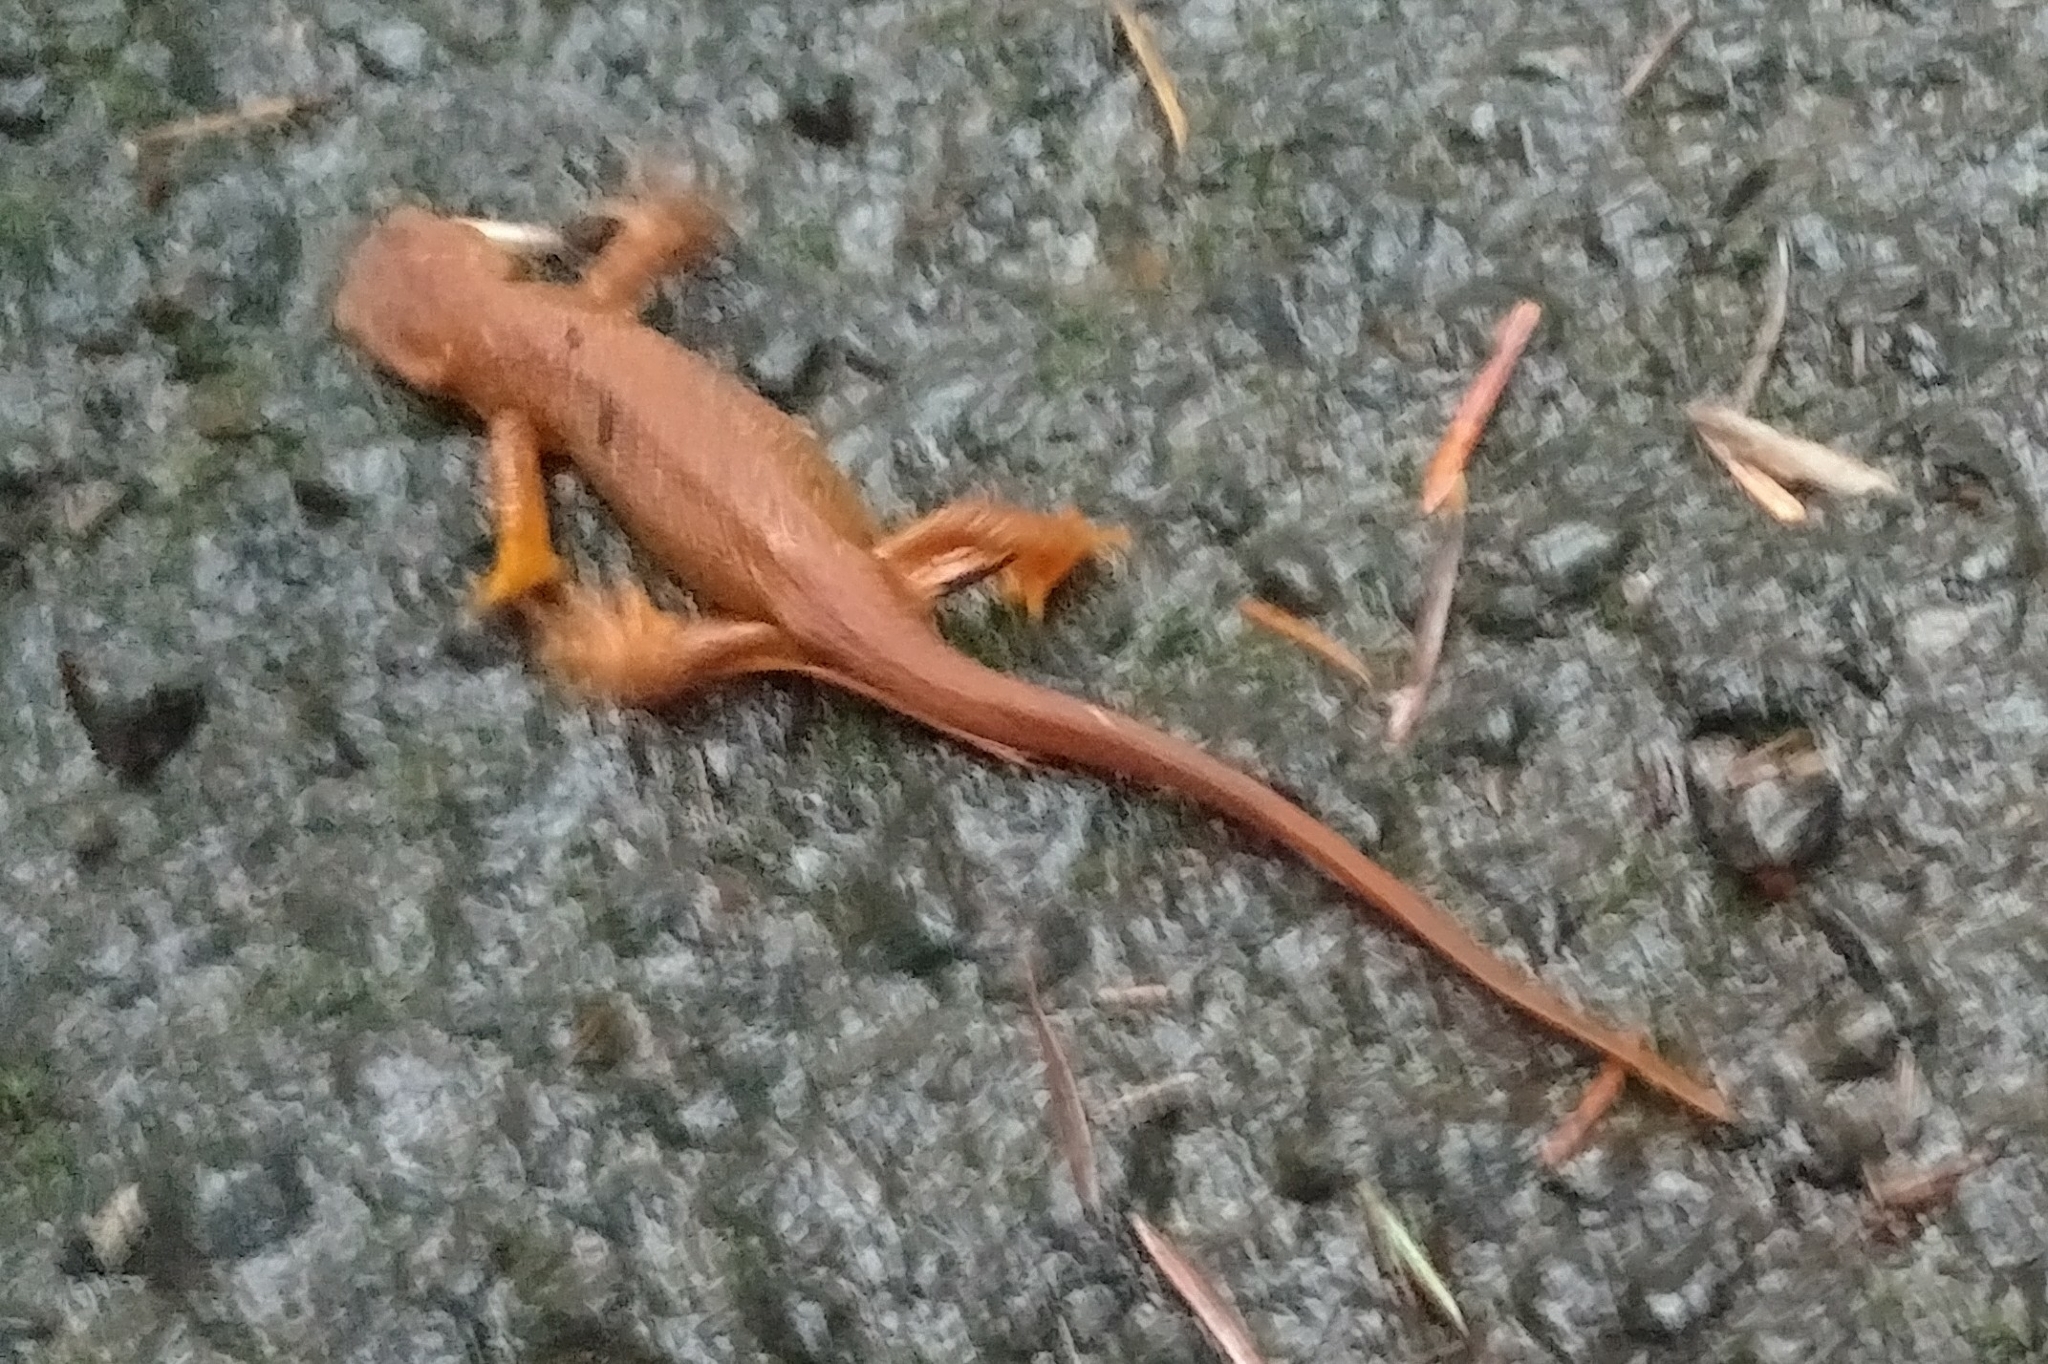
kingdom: Animalia
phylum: Chordata
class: Amphibia
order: Caudata
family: Salamandridae
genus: Taricha
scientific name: Taricha granulosa
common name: Roughskin newt
